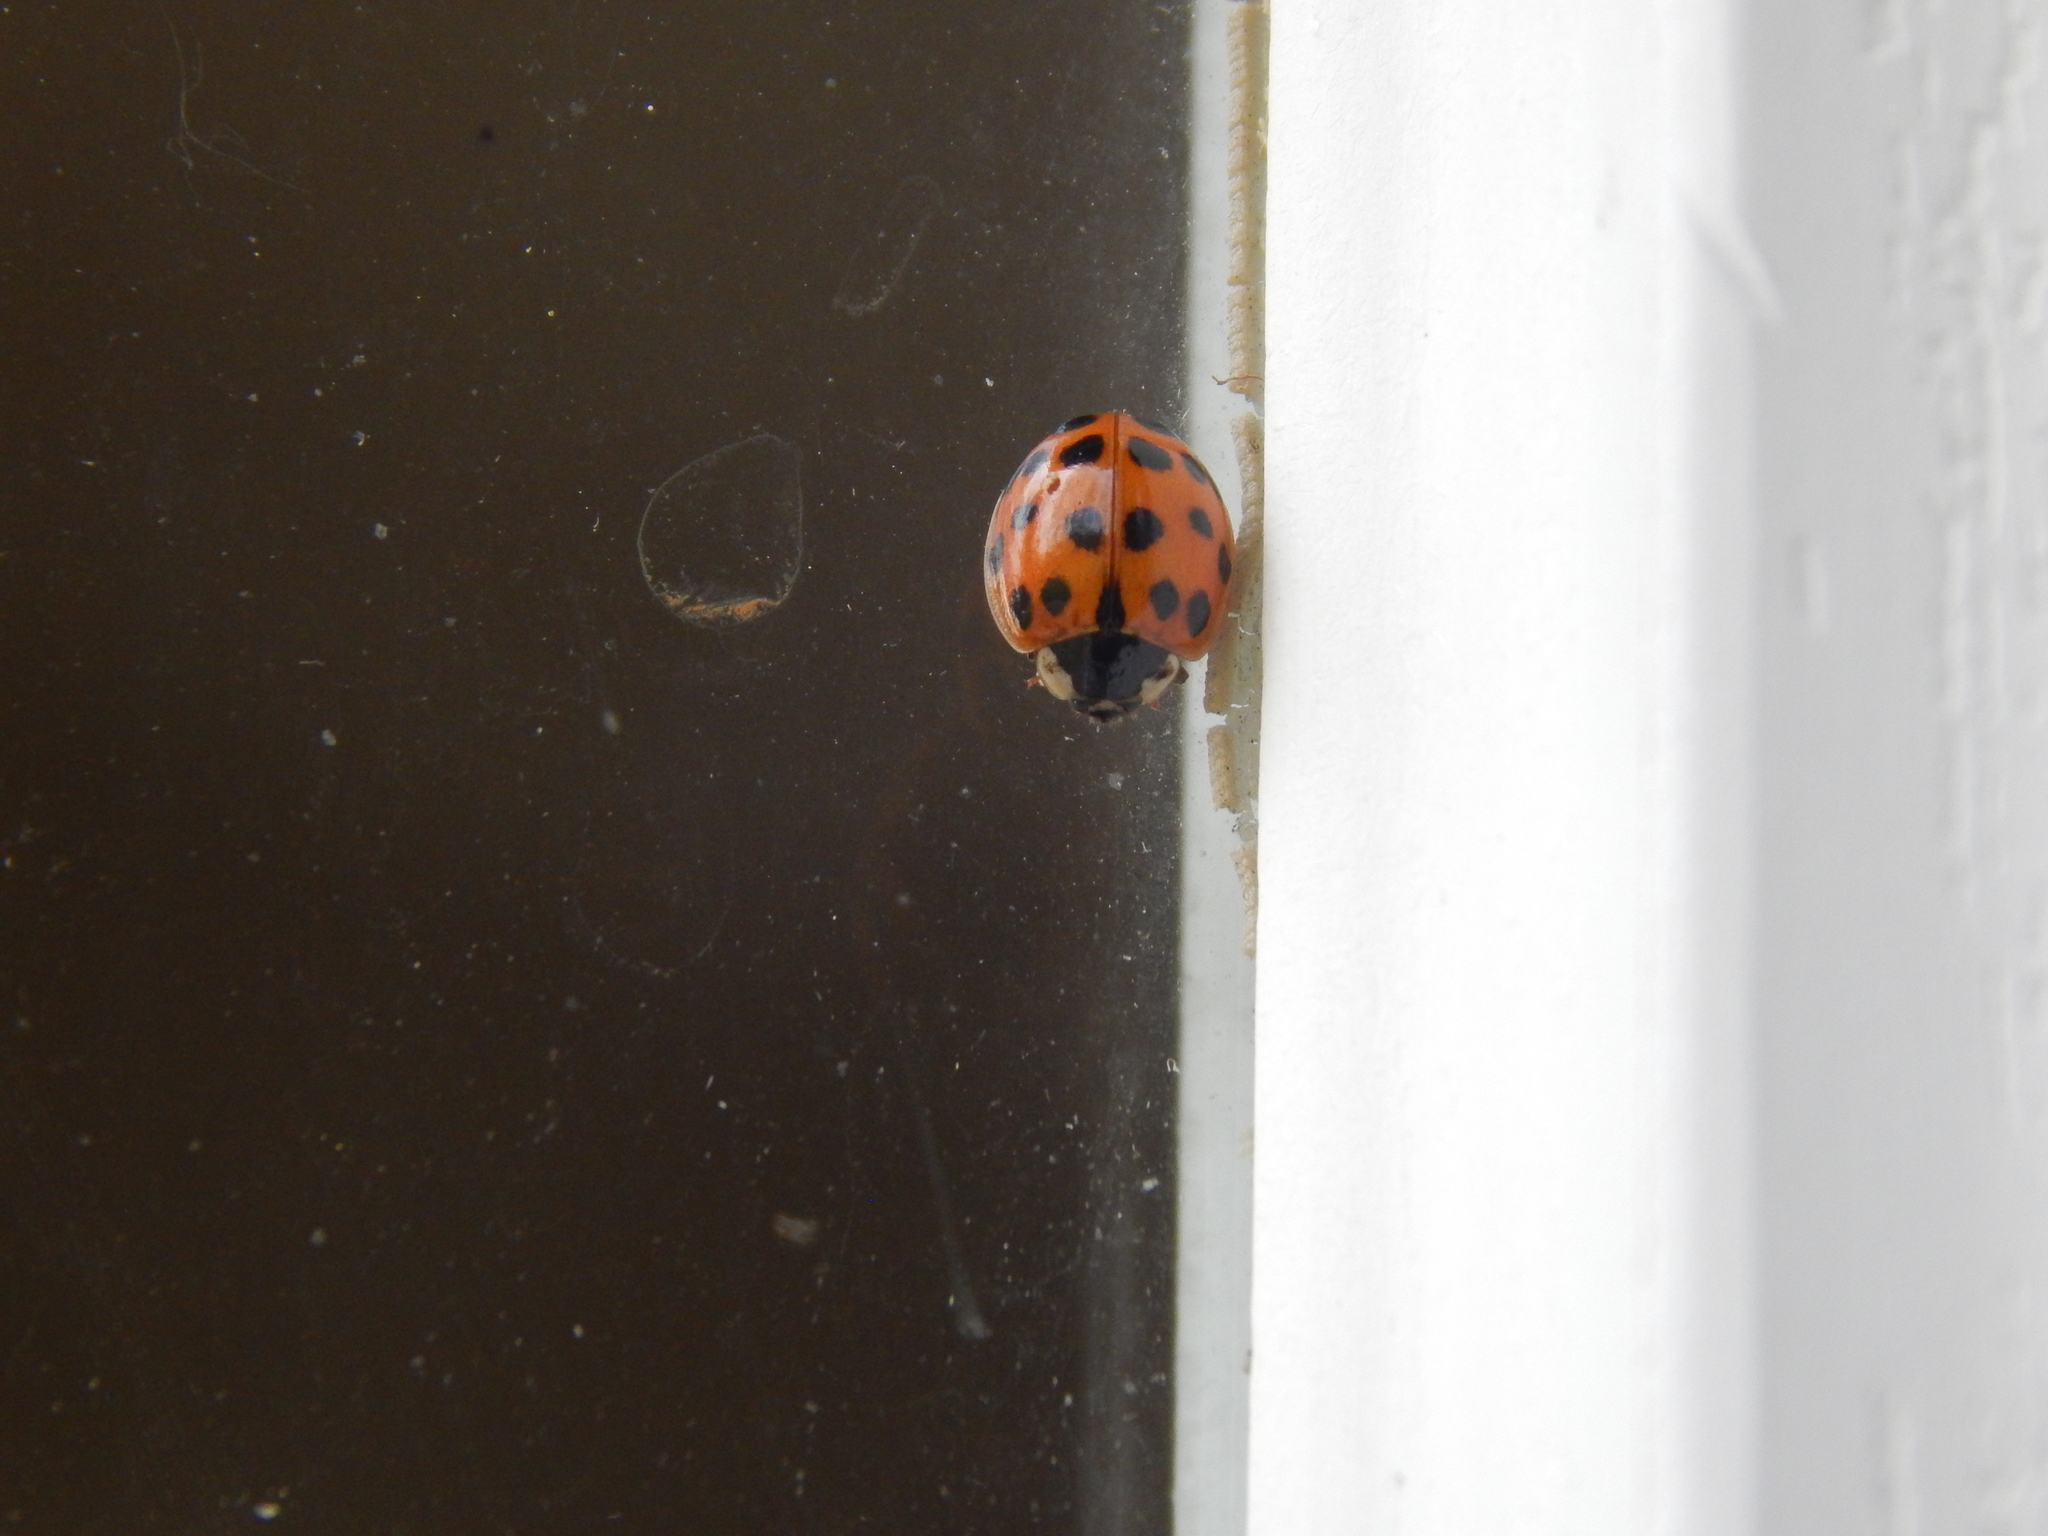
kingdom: Animalia
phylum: Arthropoda
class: Insecta
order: Coleoptera
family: Coccinellidae
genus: Harmonia
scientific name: Harmonia axyridis
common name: Harlequin ladybird
